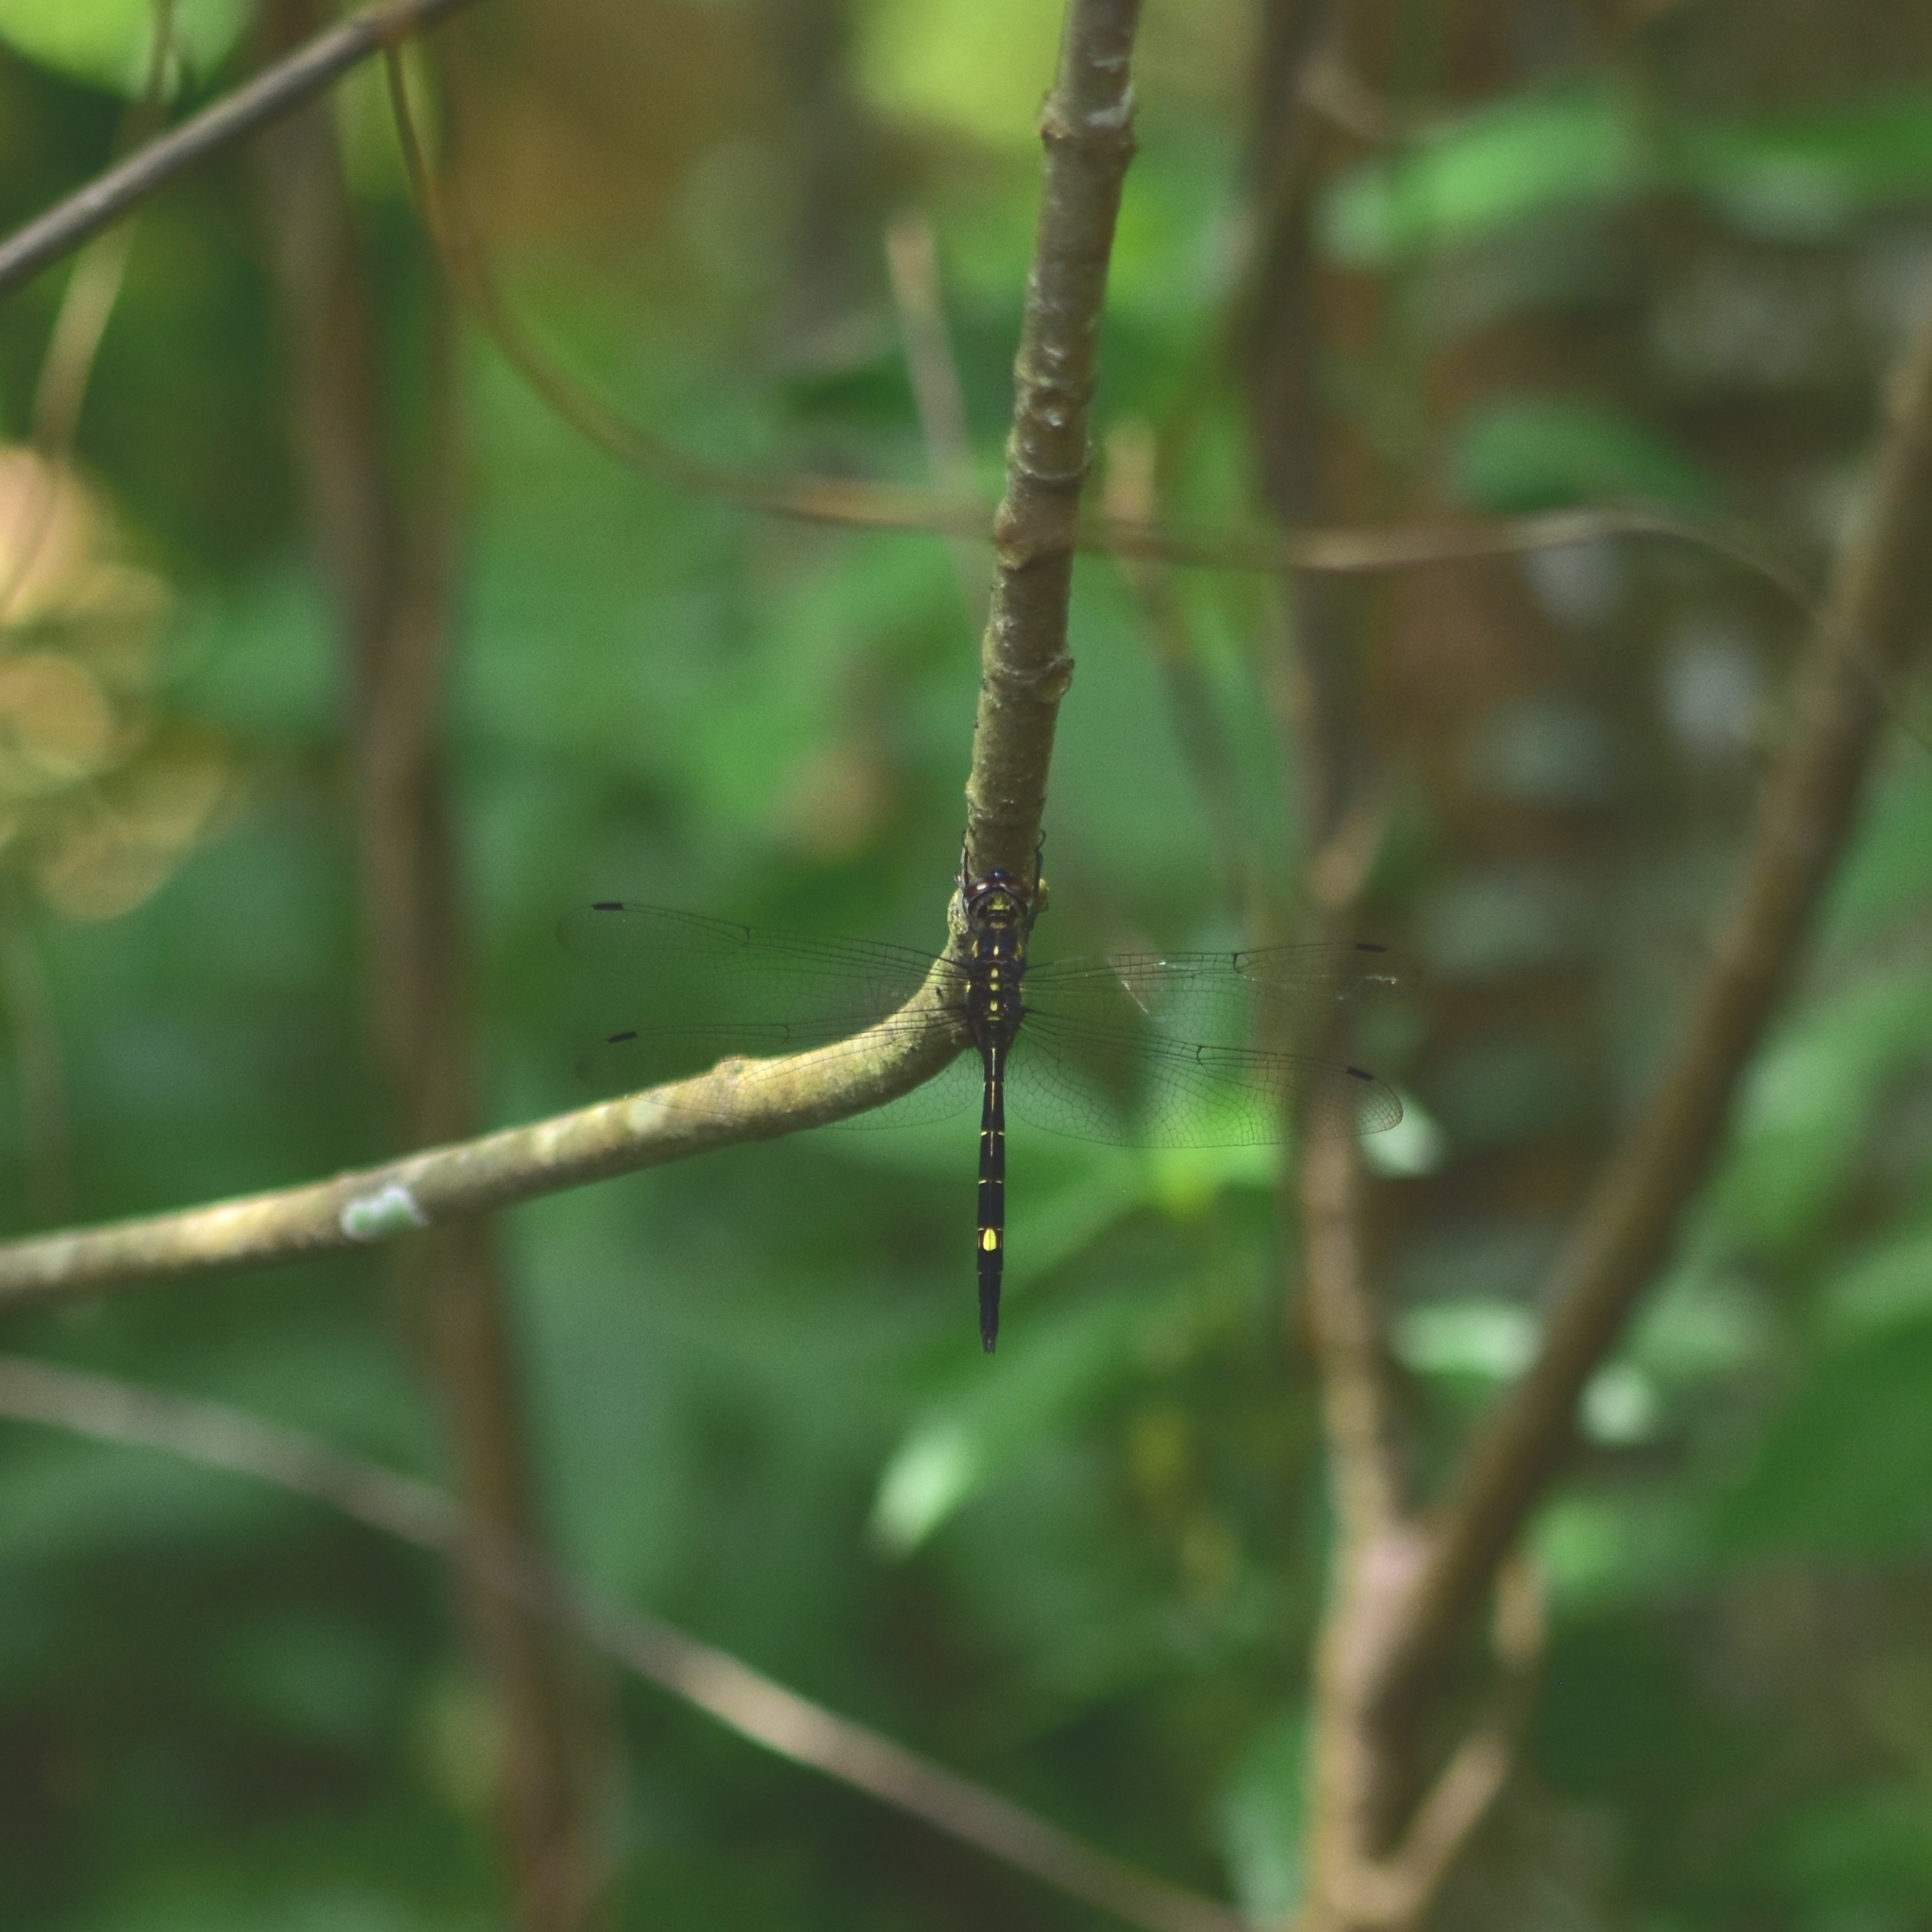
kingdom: Animalia
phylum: Arthropoda
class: Insecta
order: Odonata
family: Libellulidae
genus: Zygonyx
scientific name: Zygonyx iris
